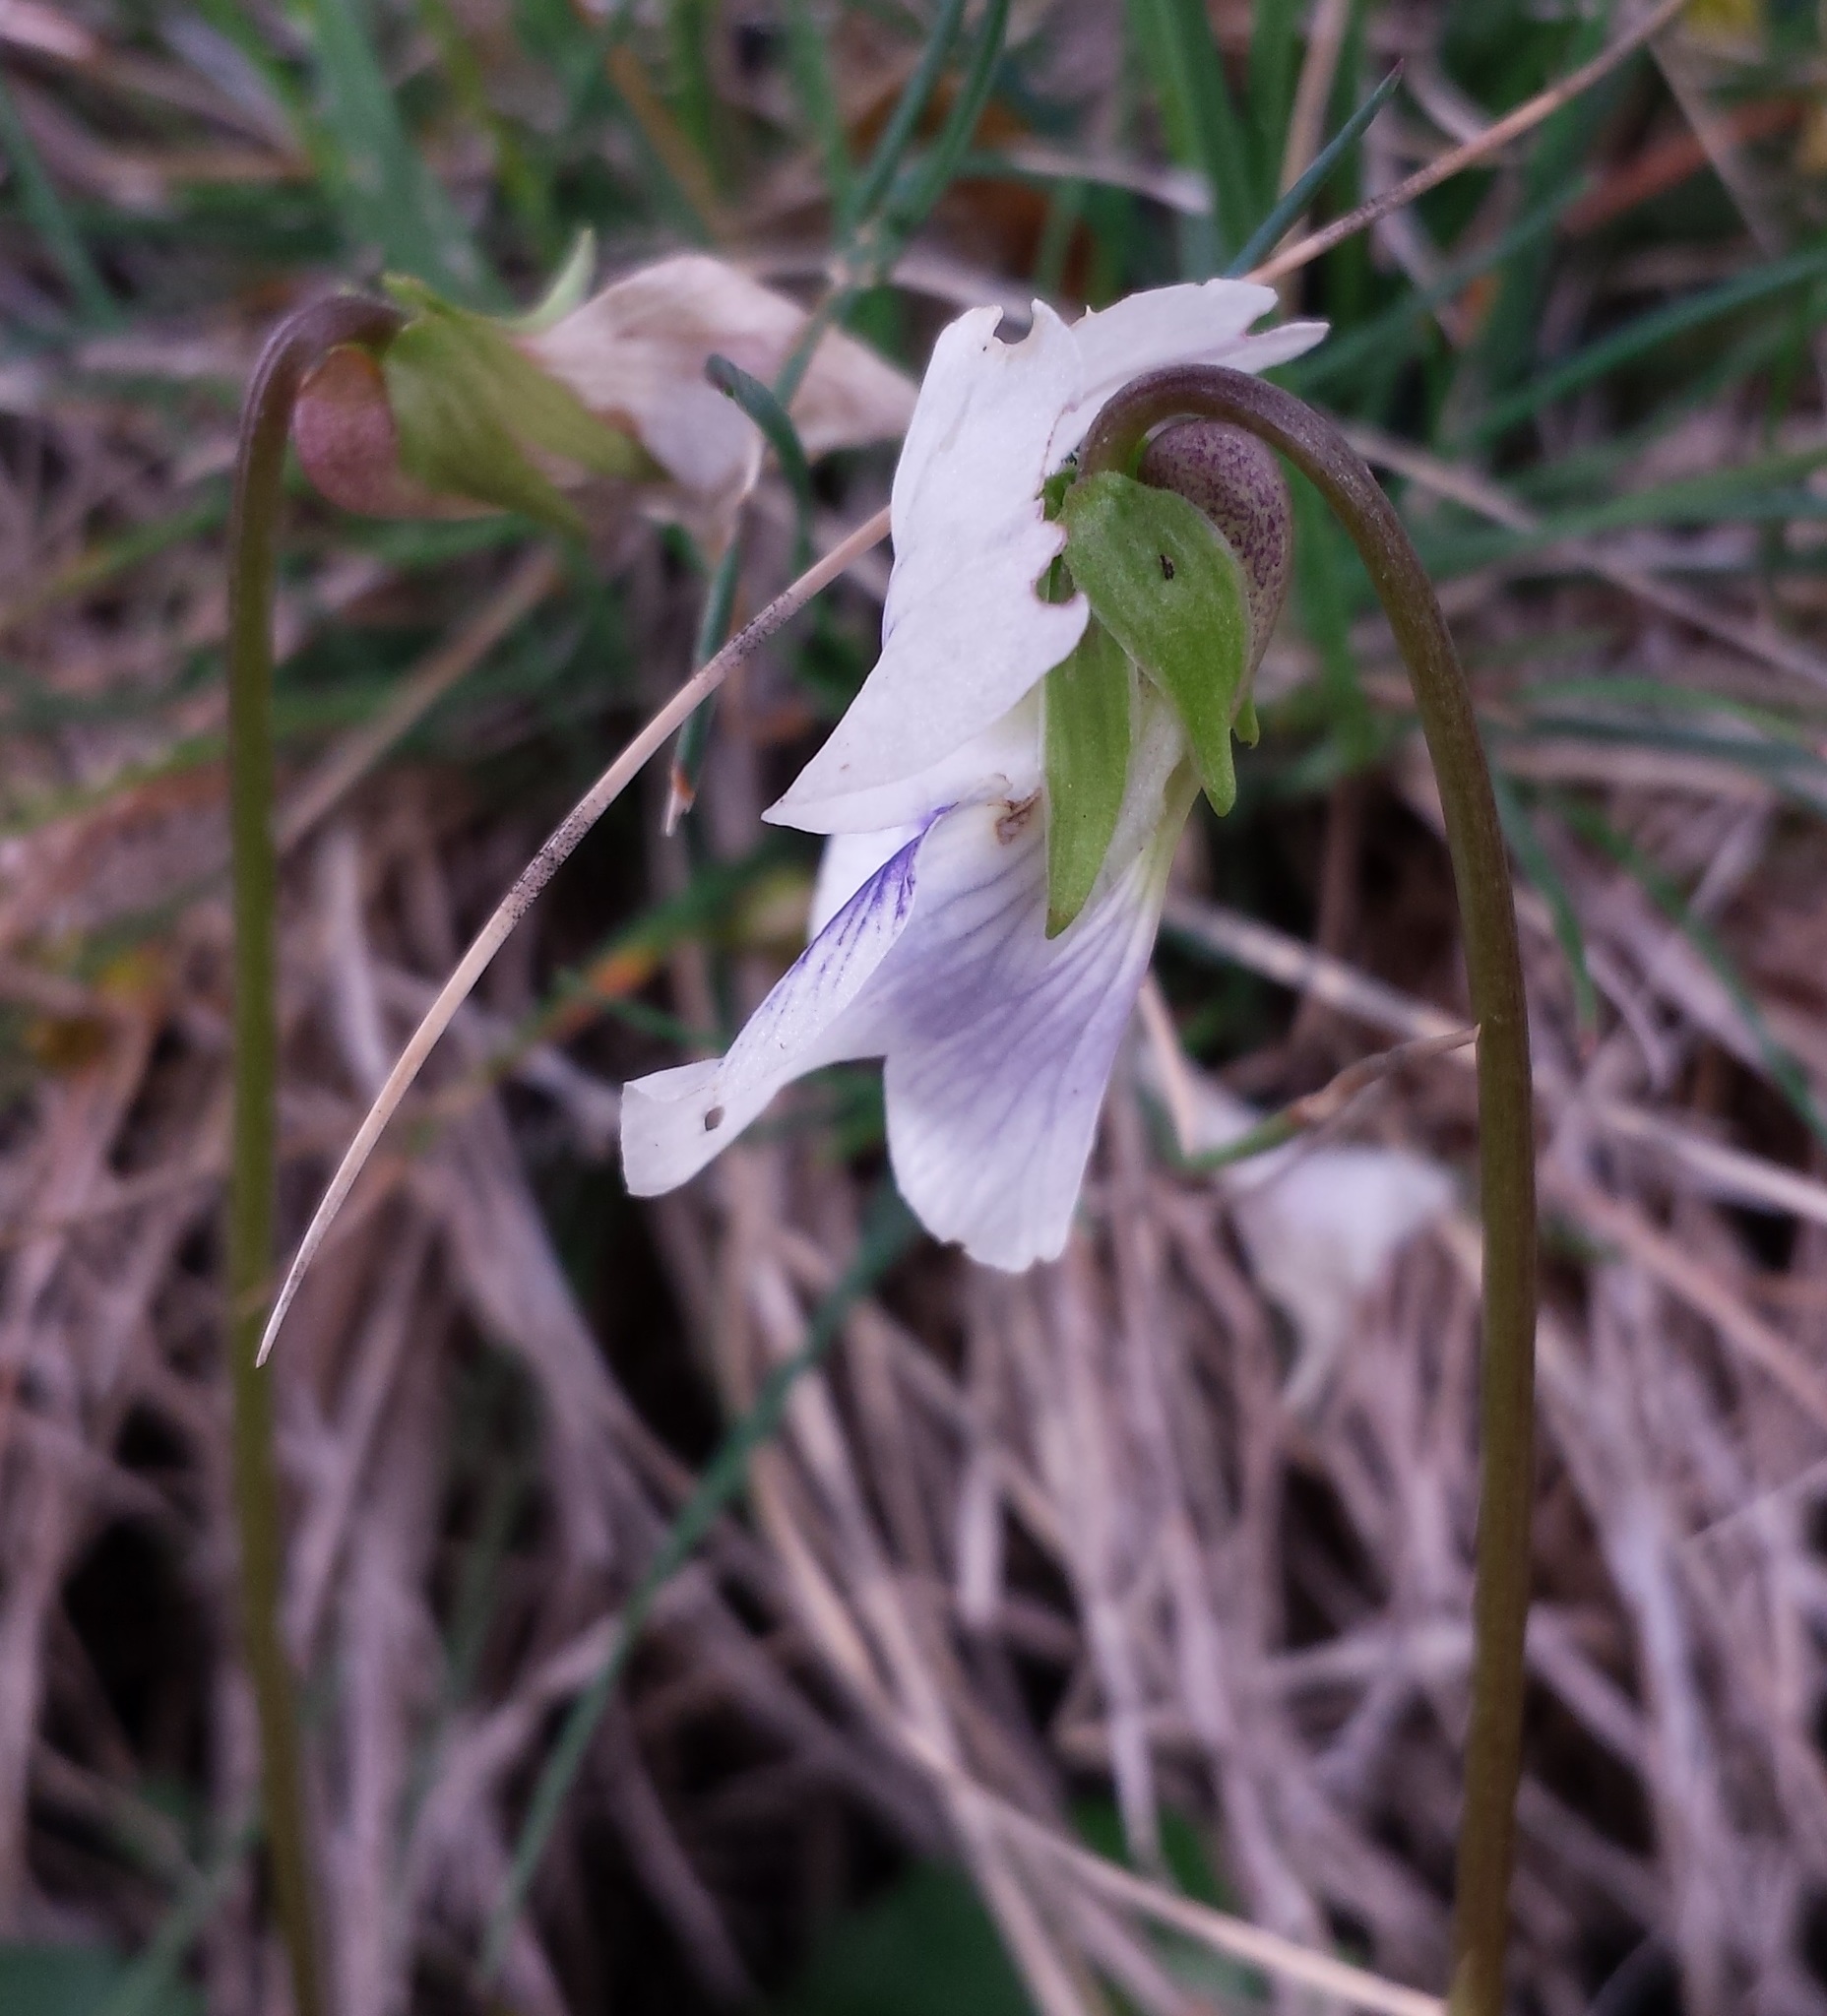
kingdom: Plantae
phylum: Tracheophyta
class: Magnoliopsida
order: Malpighiales
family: Violaceae
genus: Viola
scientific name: Viola sororia
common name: Dooryard violet
